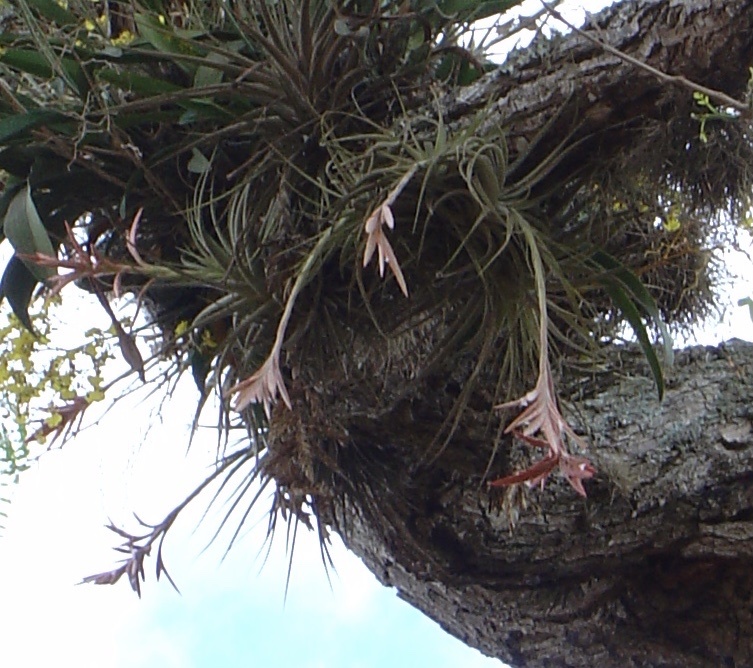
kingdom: Plantae
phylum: Tracheophyta
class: Liliopsida
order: Poales
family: Bromeliaceae
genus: Tillandsia
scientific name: Tillandsia didisticha
